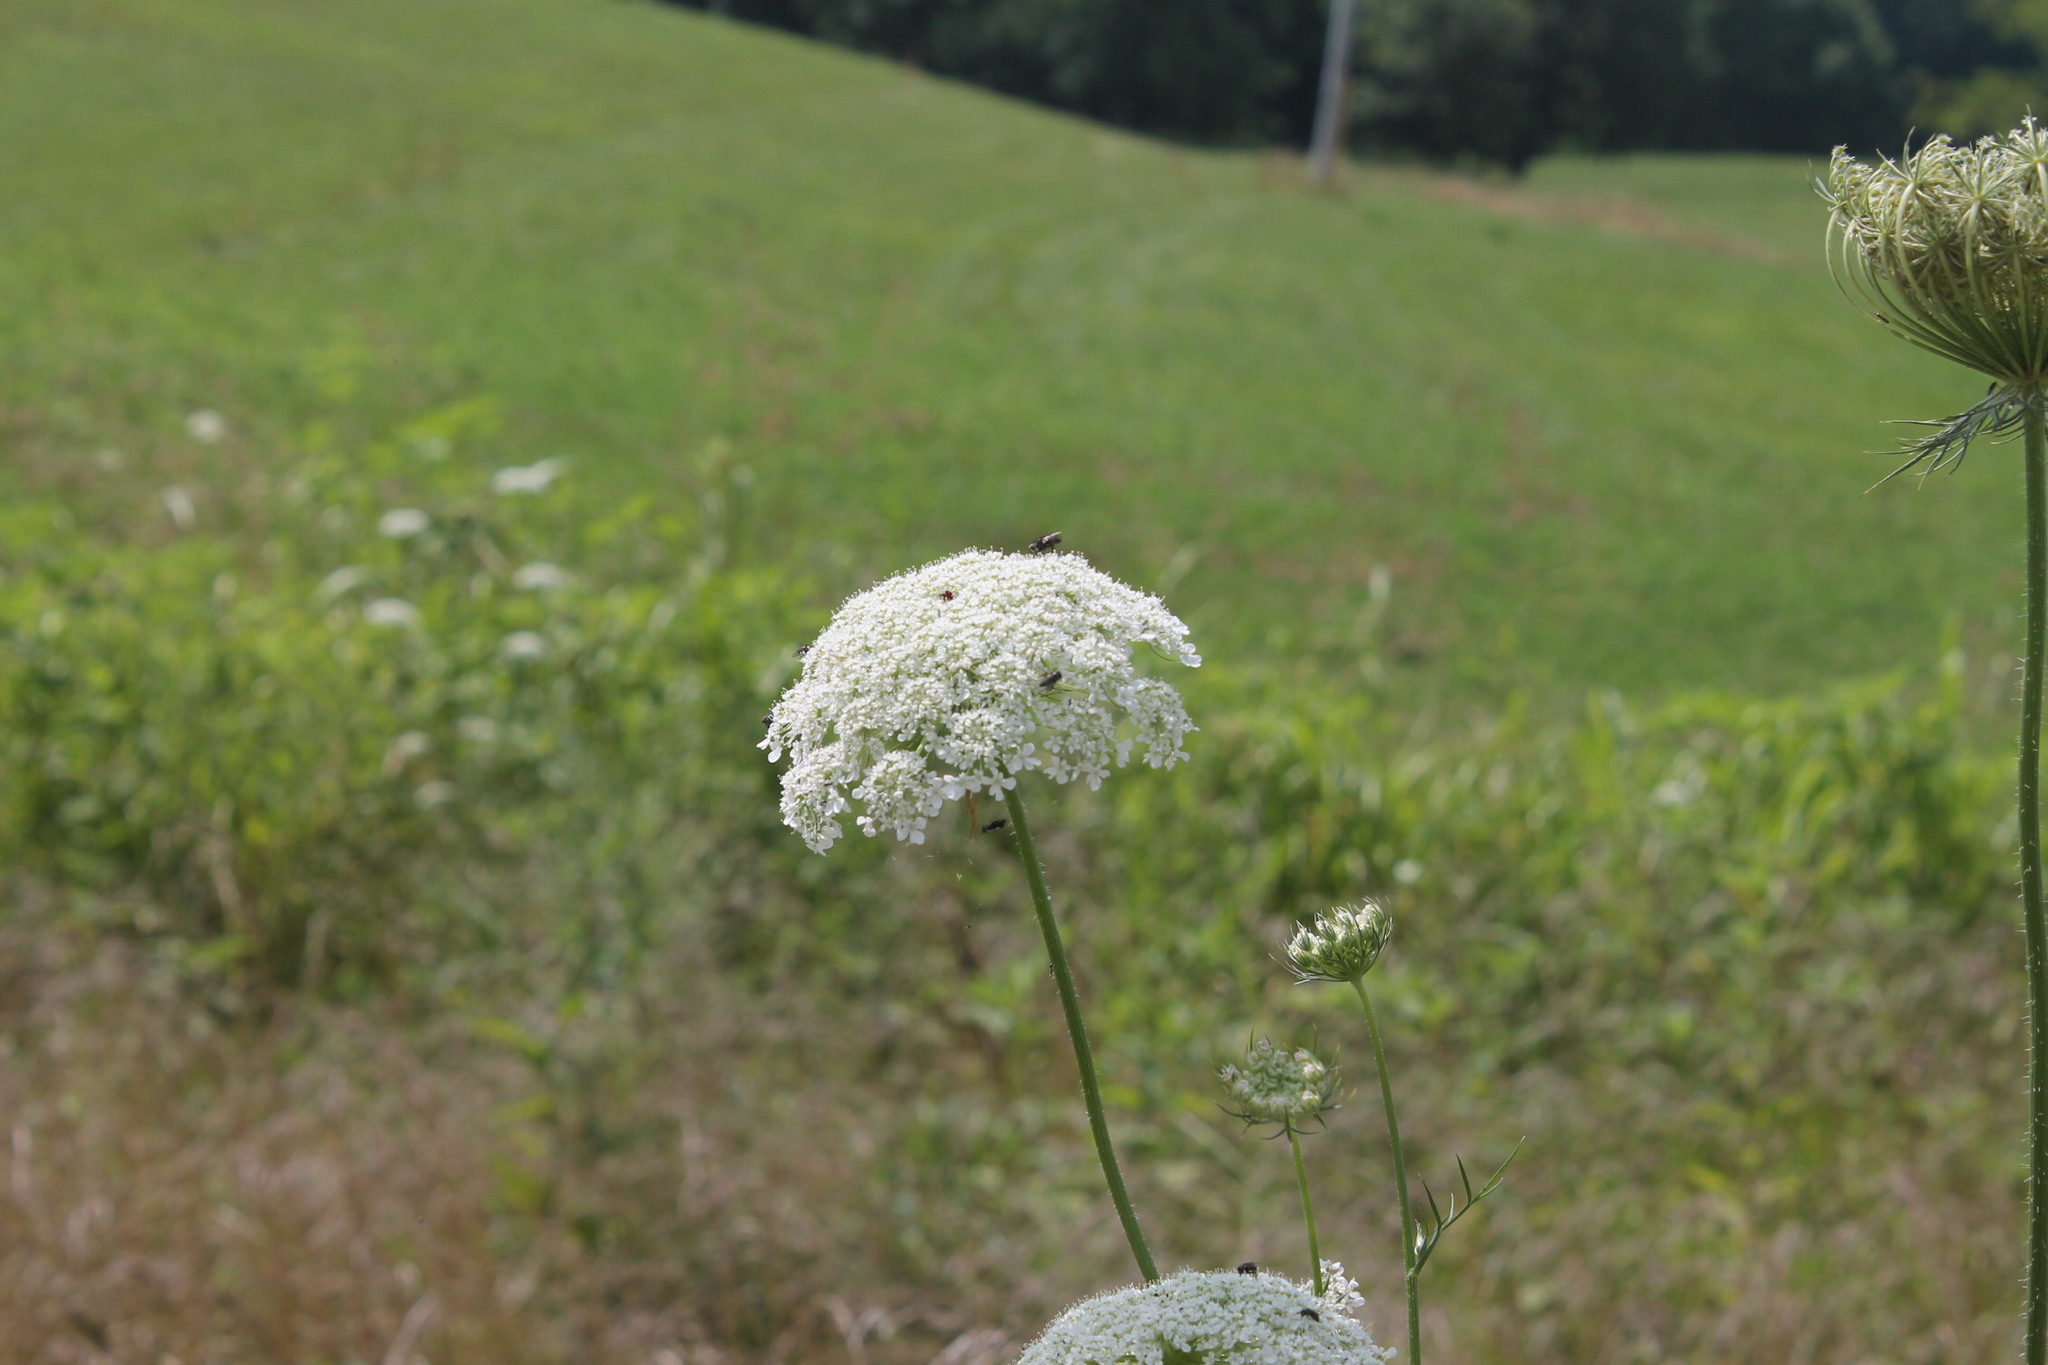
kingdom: Plantae
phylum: Tracheophyta
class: Magnoliopsida
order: Apiales
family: Apiaceae
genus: Daucus
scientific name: Daucus carota
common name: Wild carrot
